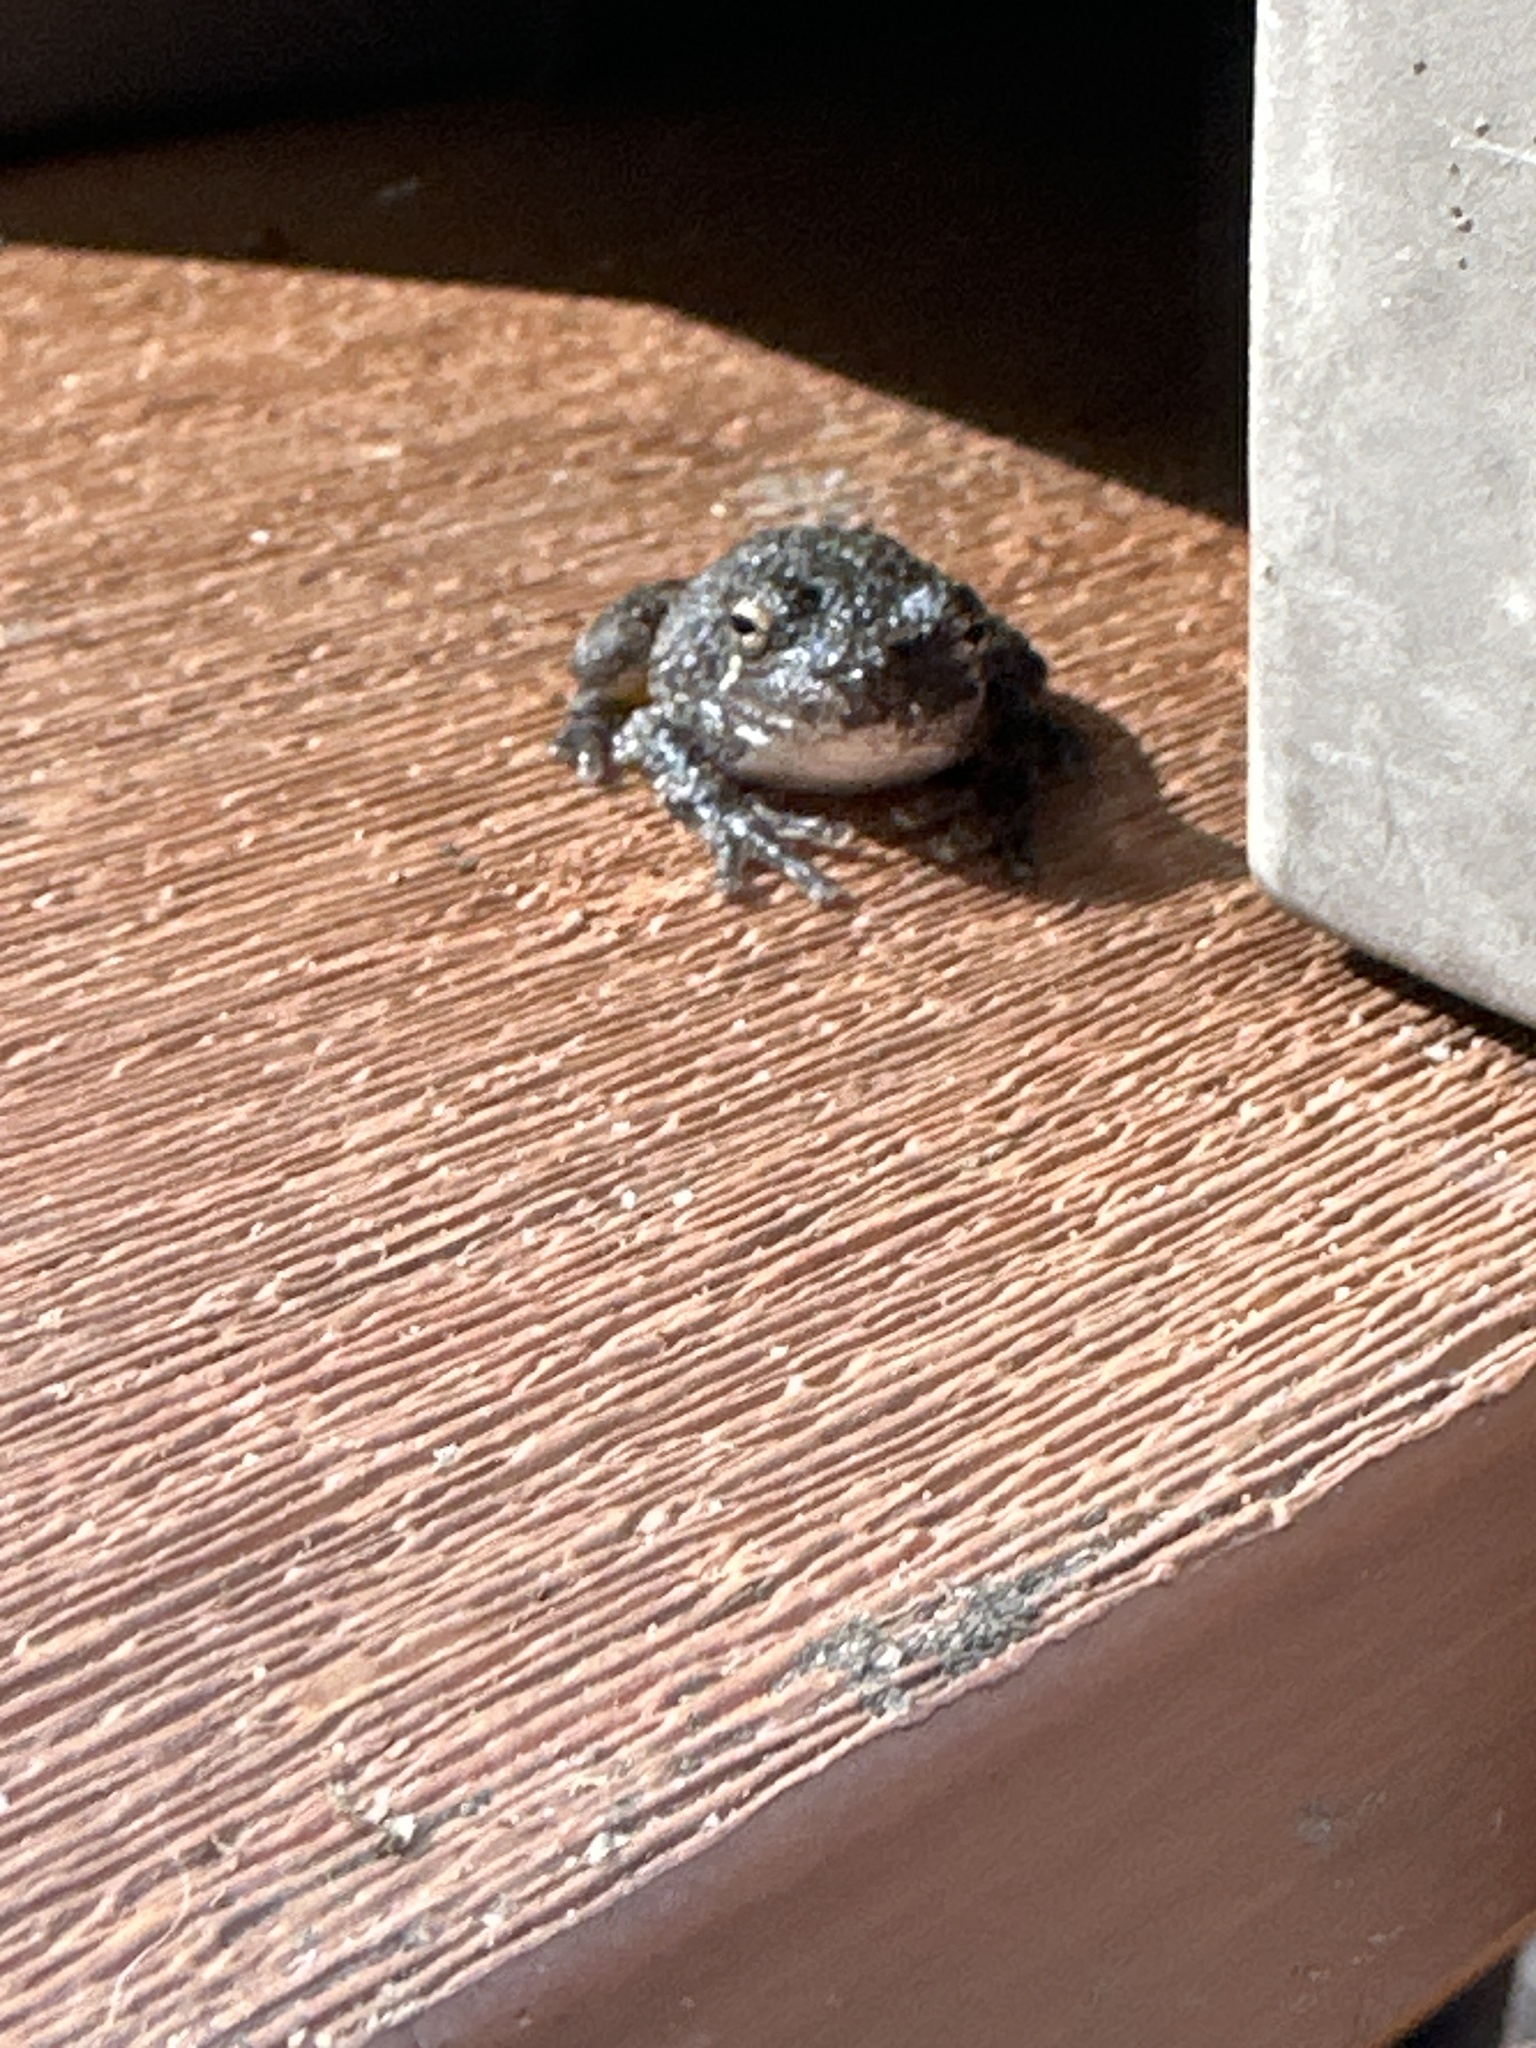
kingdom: Animalia
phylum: Chordata
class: Amphibia
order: Anura
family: Hylidae
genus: Hyla
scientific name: Hyla
